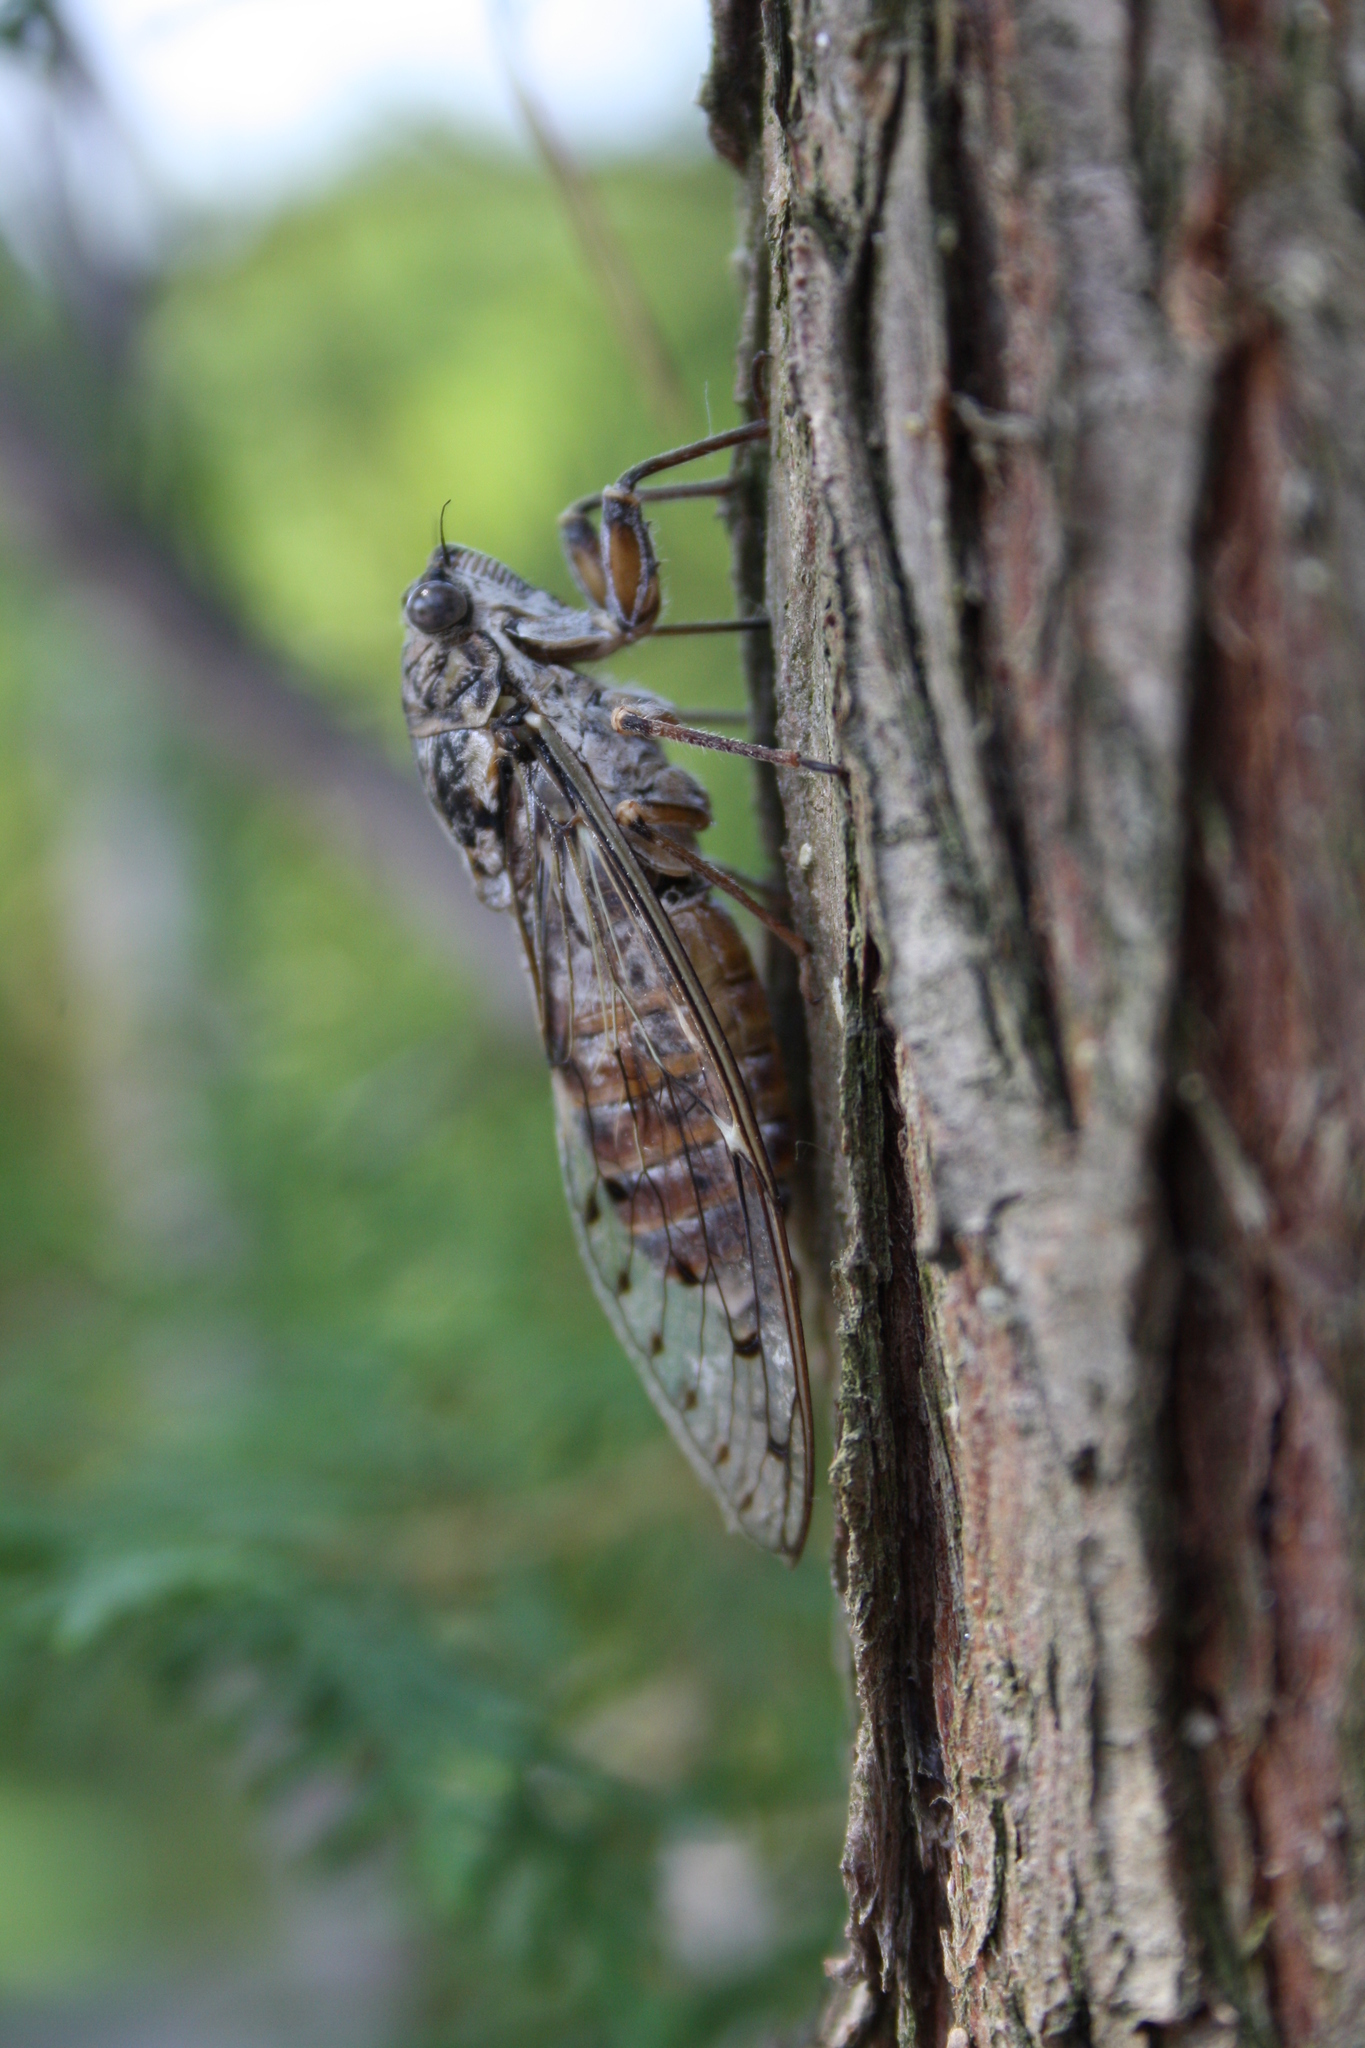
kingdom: Animalia
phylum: Arthropoda
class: Insecta
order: Hemiptera
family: Cicadidae
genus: Cicada
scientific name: Cicada orni
